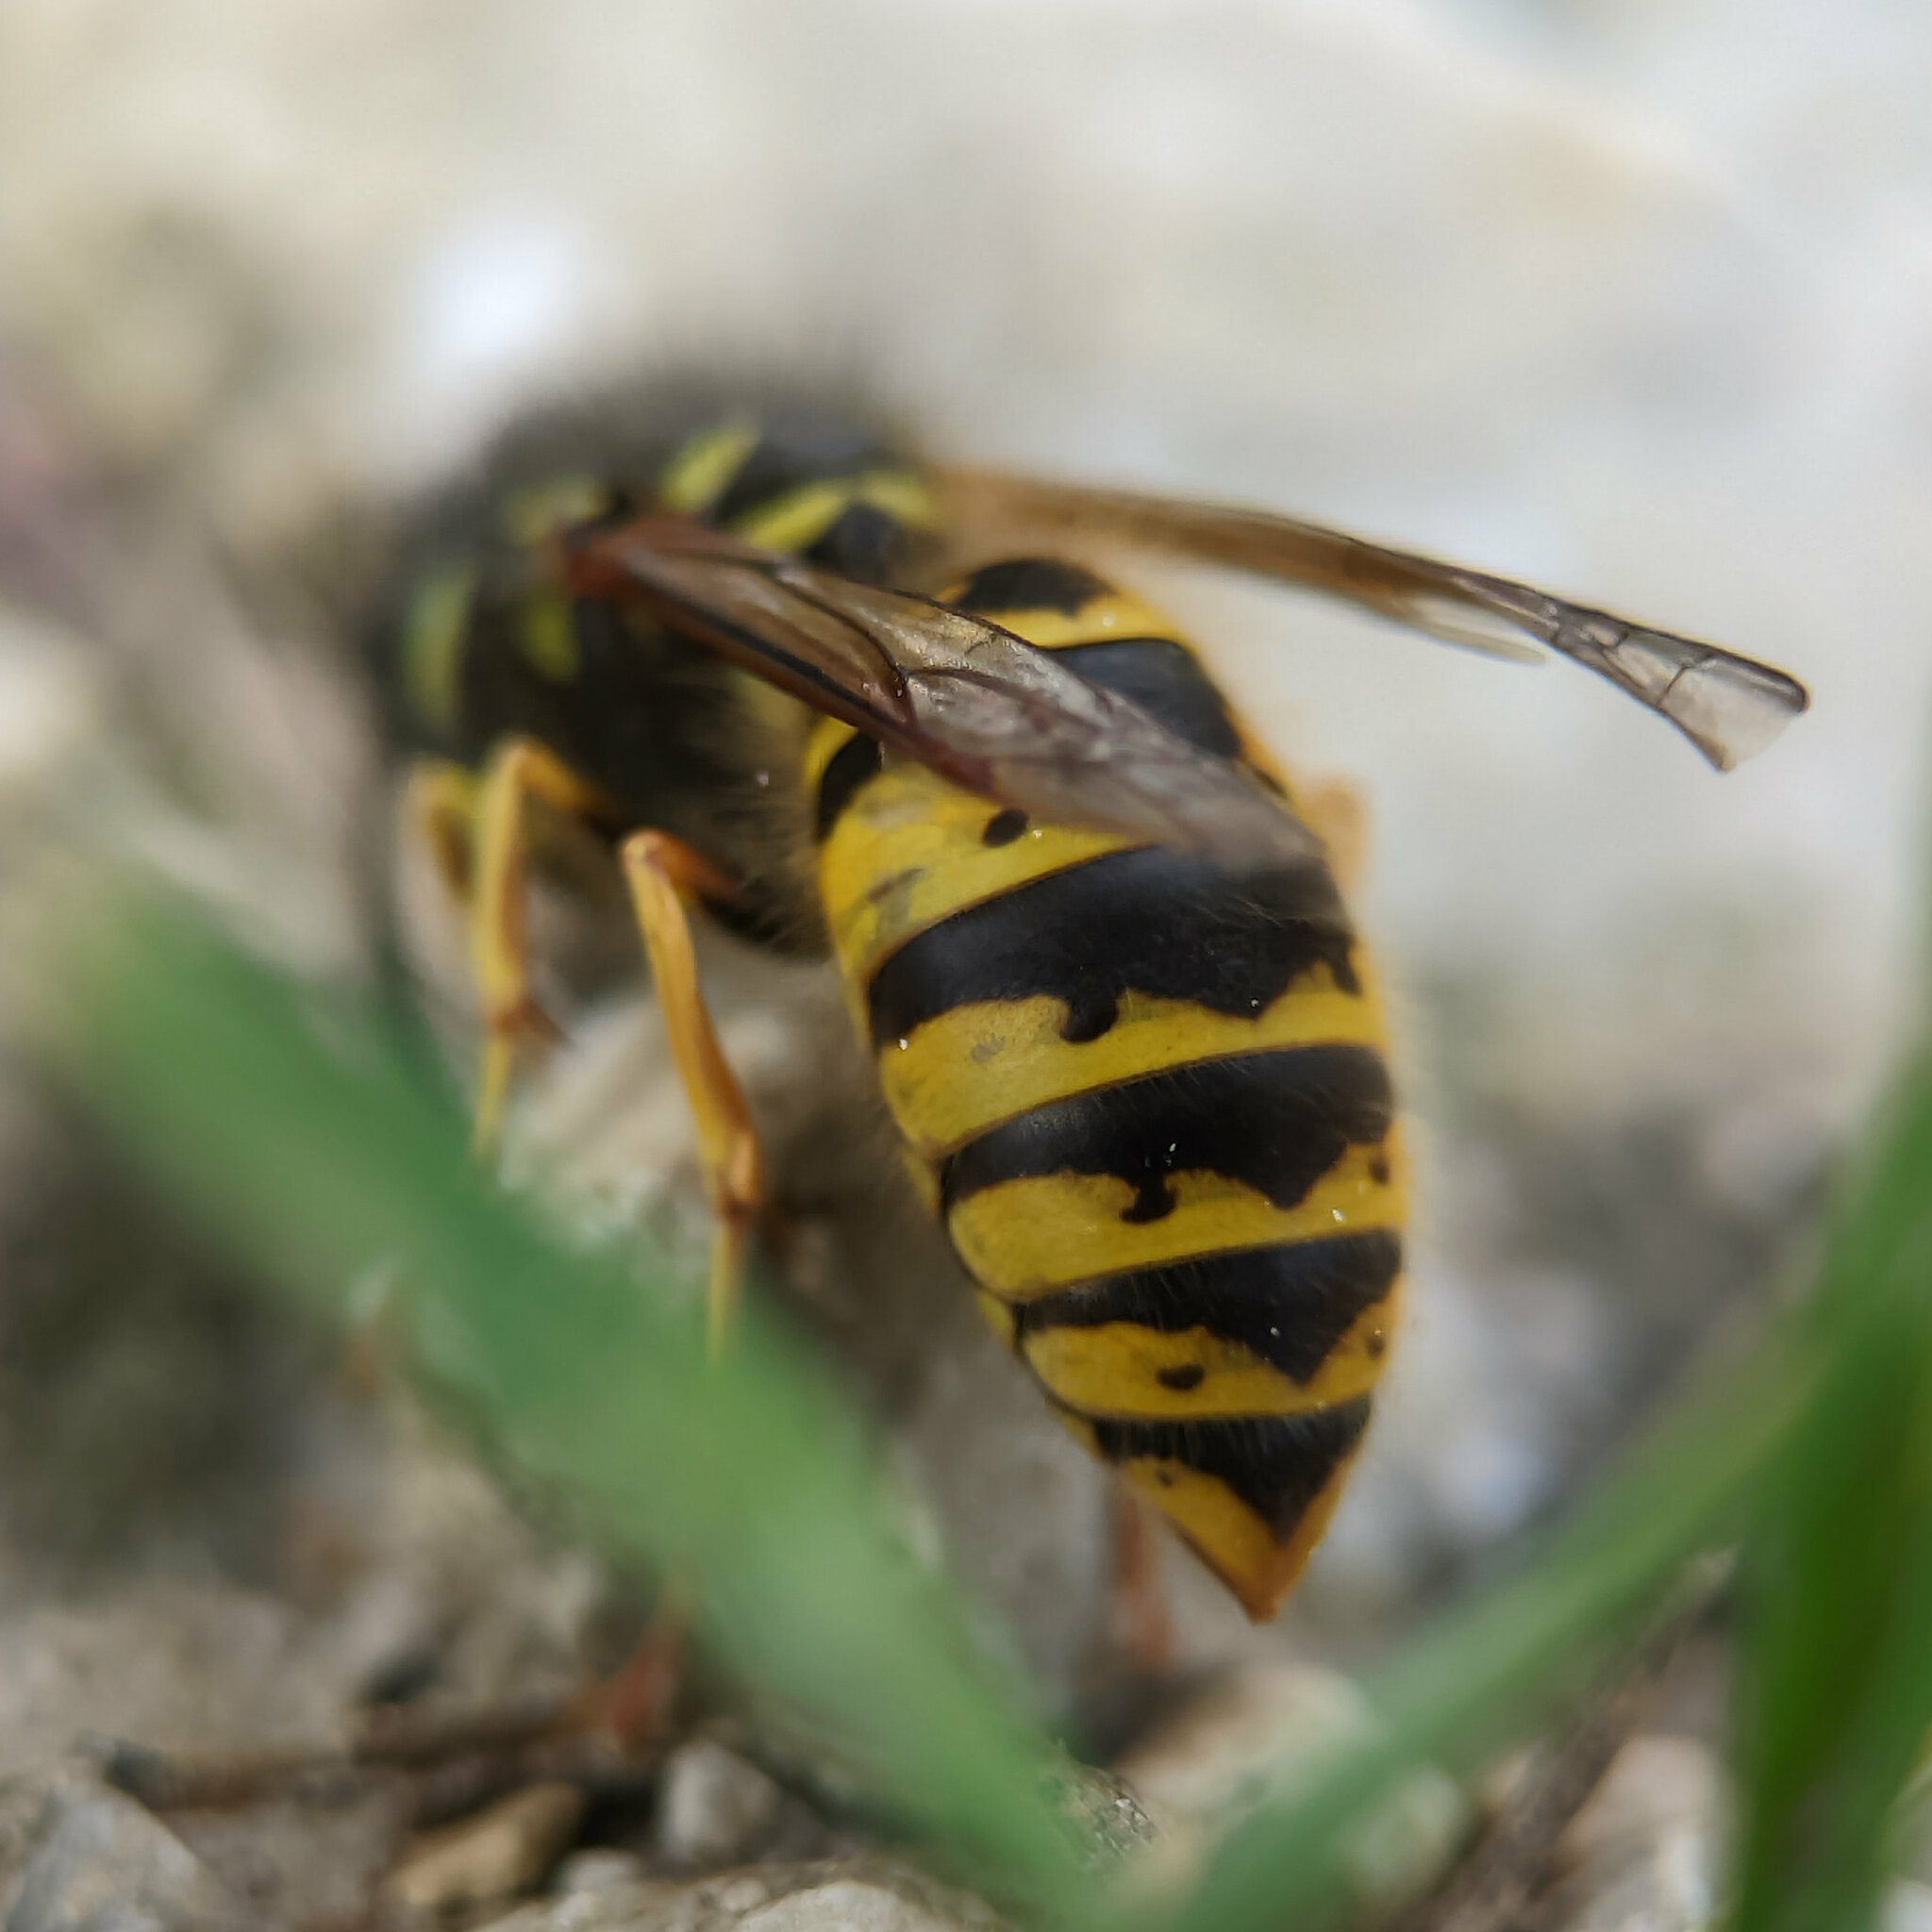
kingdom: Animalia
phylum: Arthropoda
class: Insecta
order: Hymenoptera
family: Vespidae
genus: Vespula
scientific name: Vespula vulgaris
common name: Common wasp
